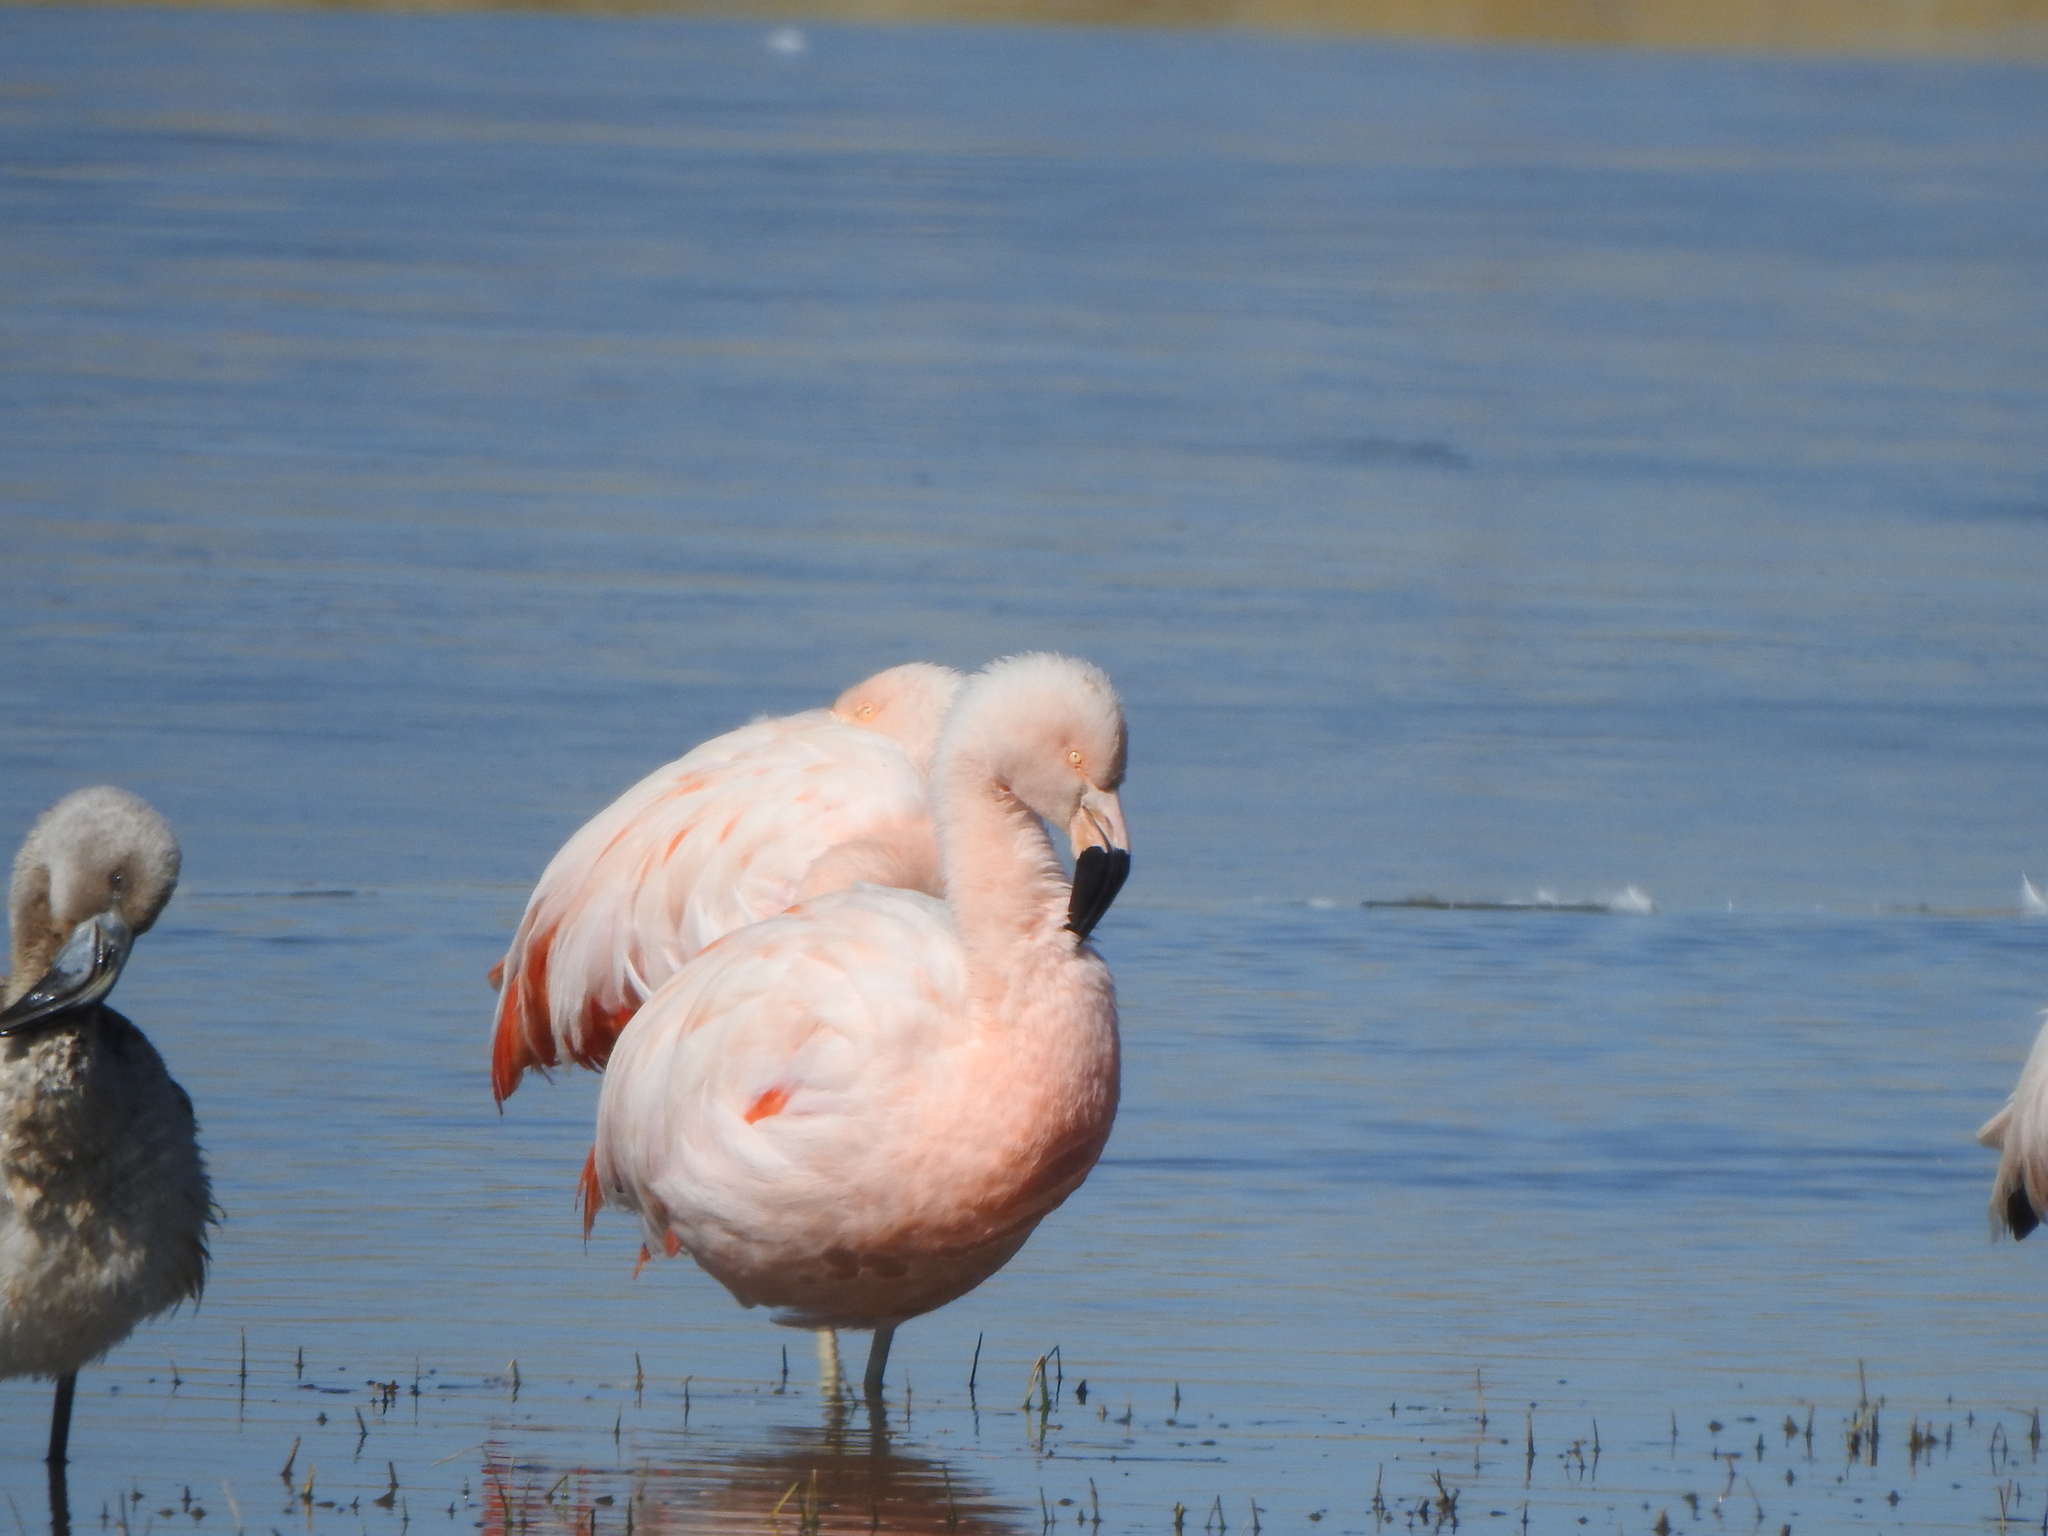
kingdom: Animalia
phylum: Chordata
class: Aves
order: Phoenicopteriformes
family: Phoenicopteridae
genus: Phoenicopterus
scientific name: Phoenicopterus chilensis
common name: Chilean flamingo
